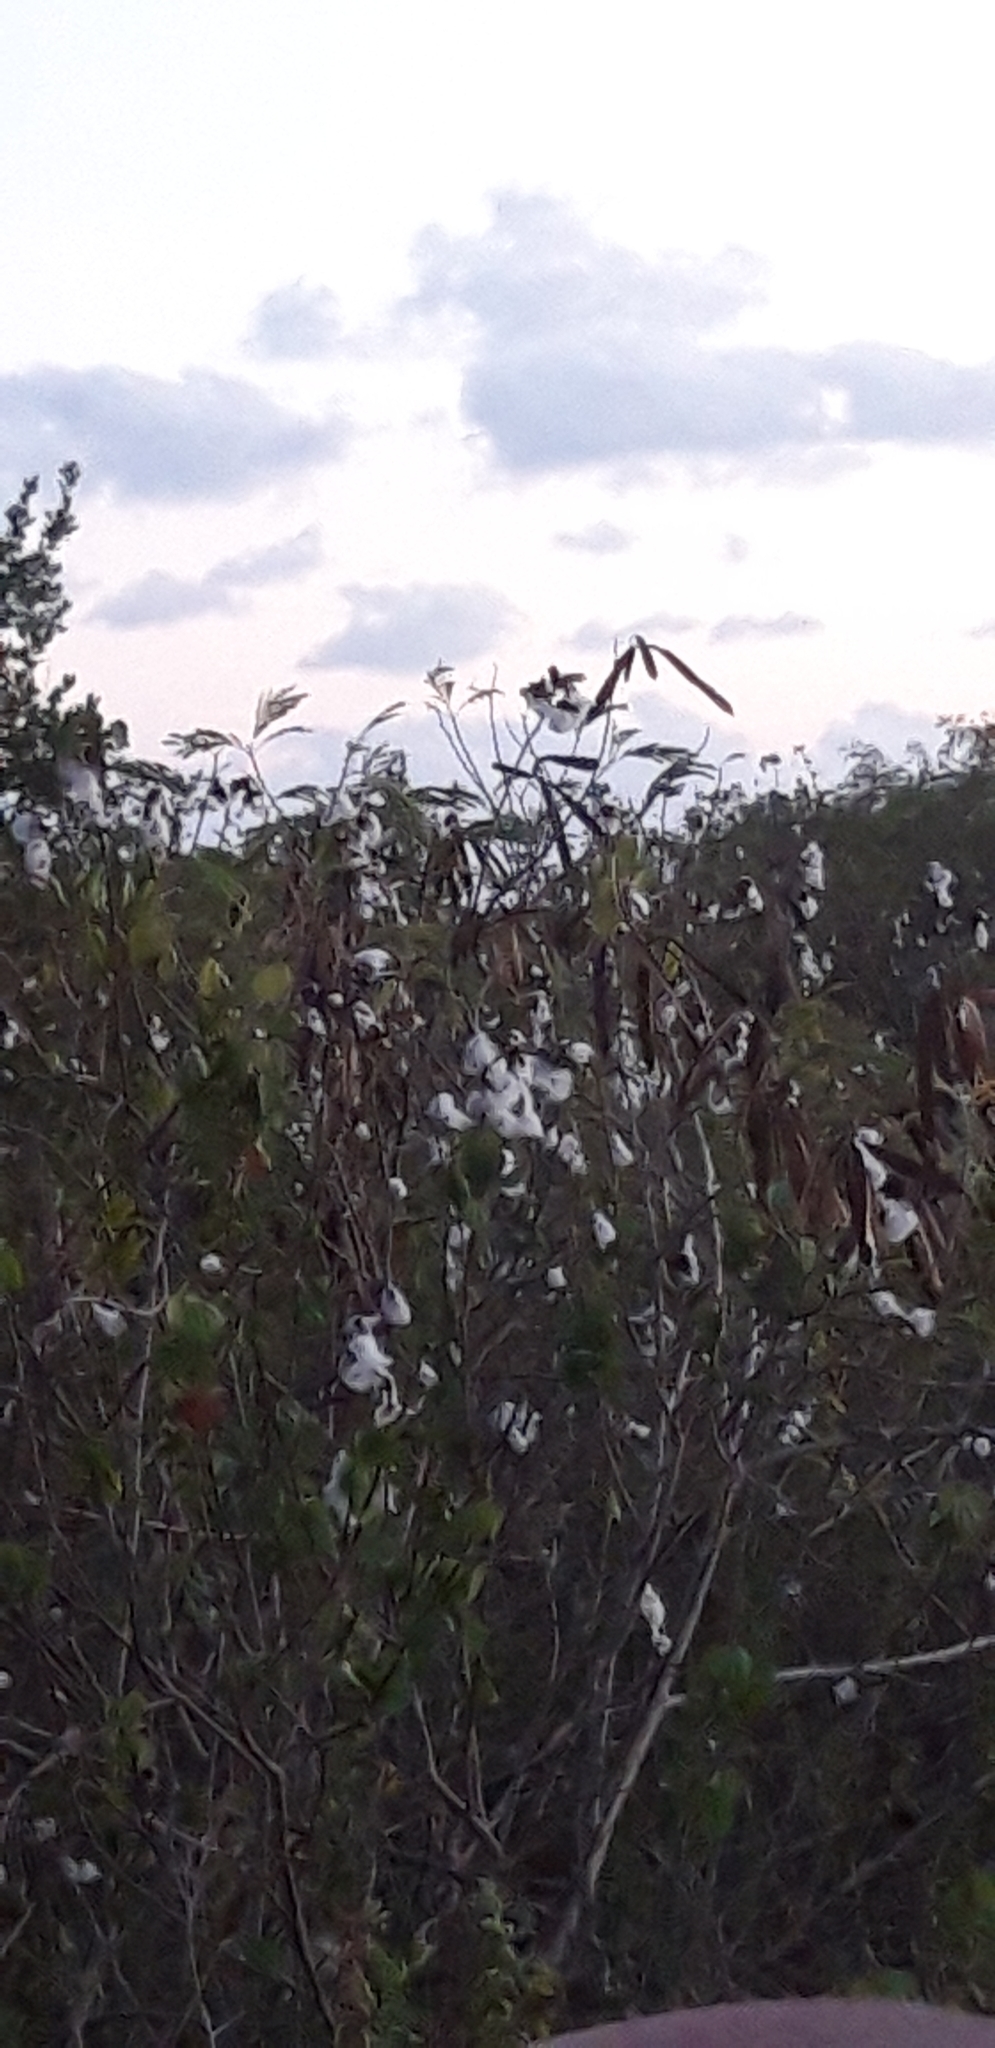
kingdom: Plantae
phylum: Tracheophyta
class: Magnoliopsida
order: Malvales
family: Malvaceae
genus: Gossypium
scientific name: Gossypium hirsutum
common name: Cotton
